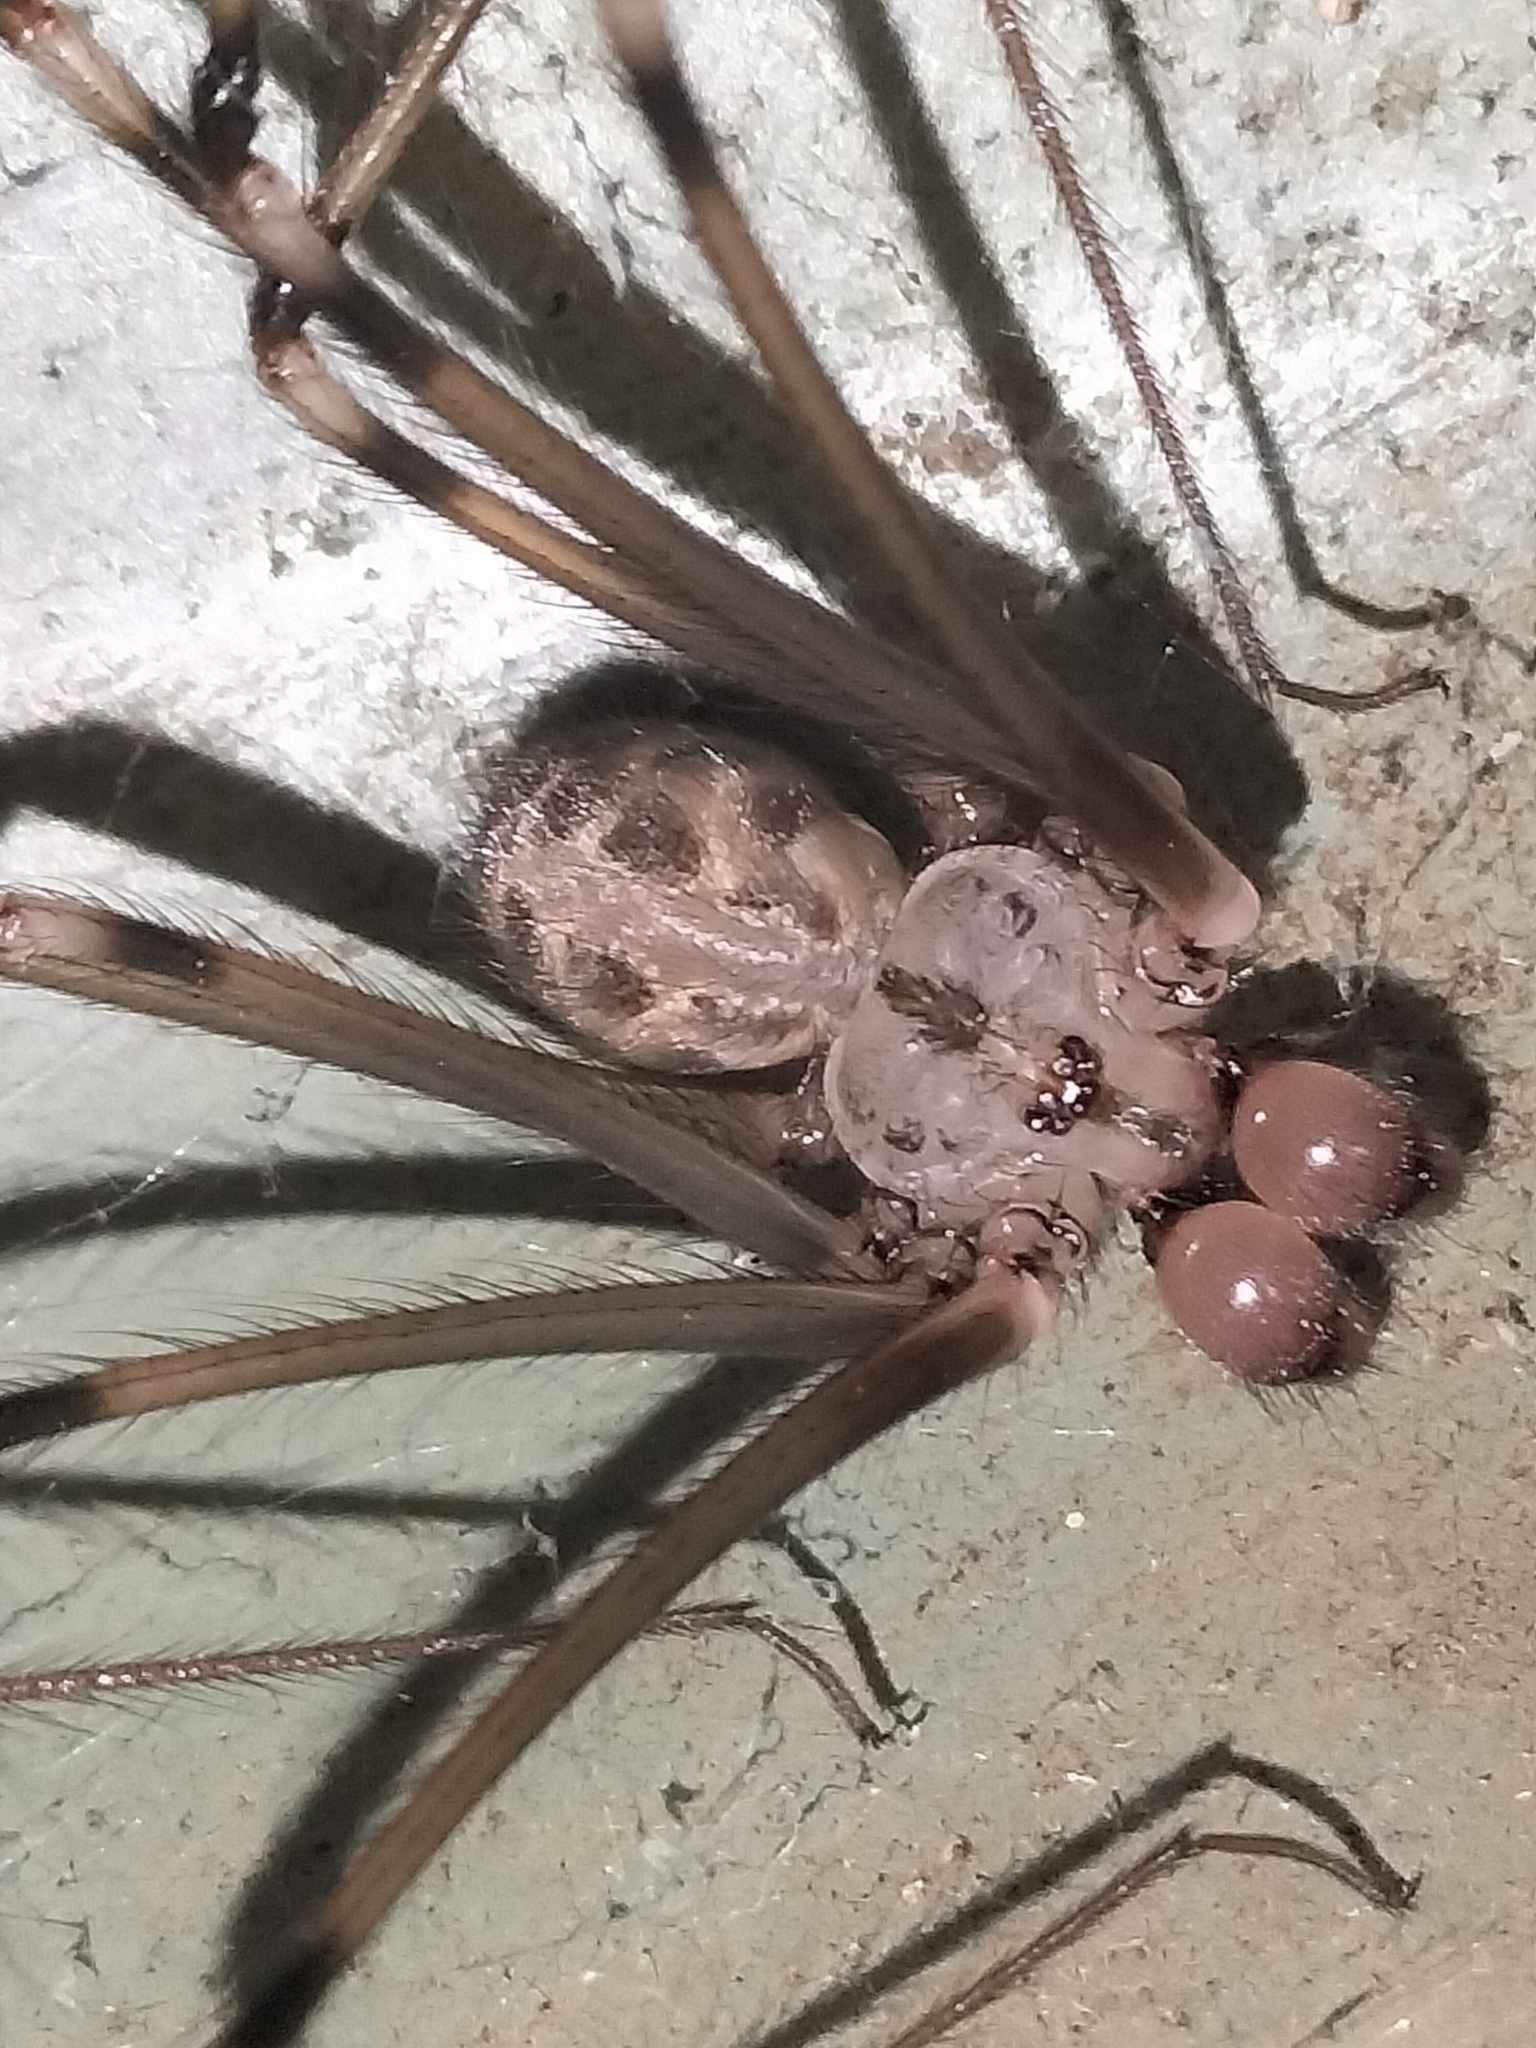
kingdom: Animalia
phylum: Arthropoda
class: Arachnida
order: Araneae
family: Pholcidae
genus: Artema
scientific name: Artema atlanta
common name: Cellar spider
